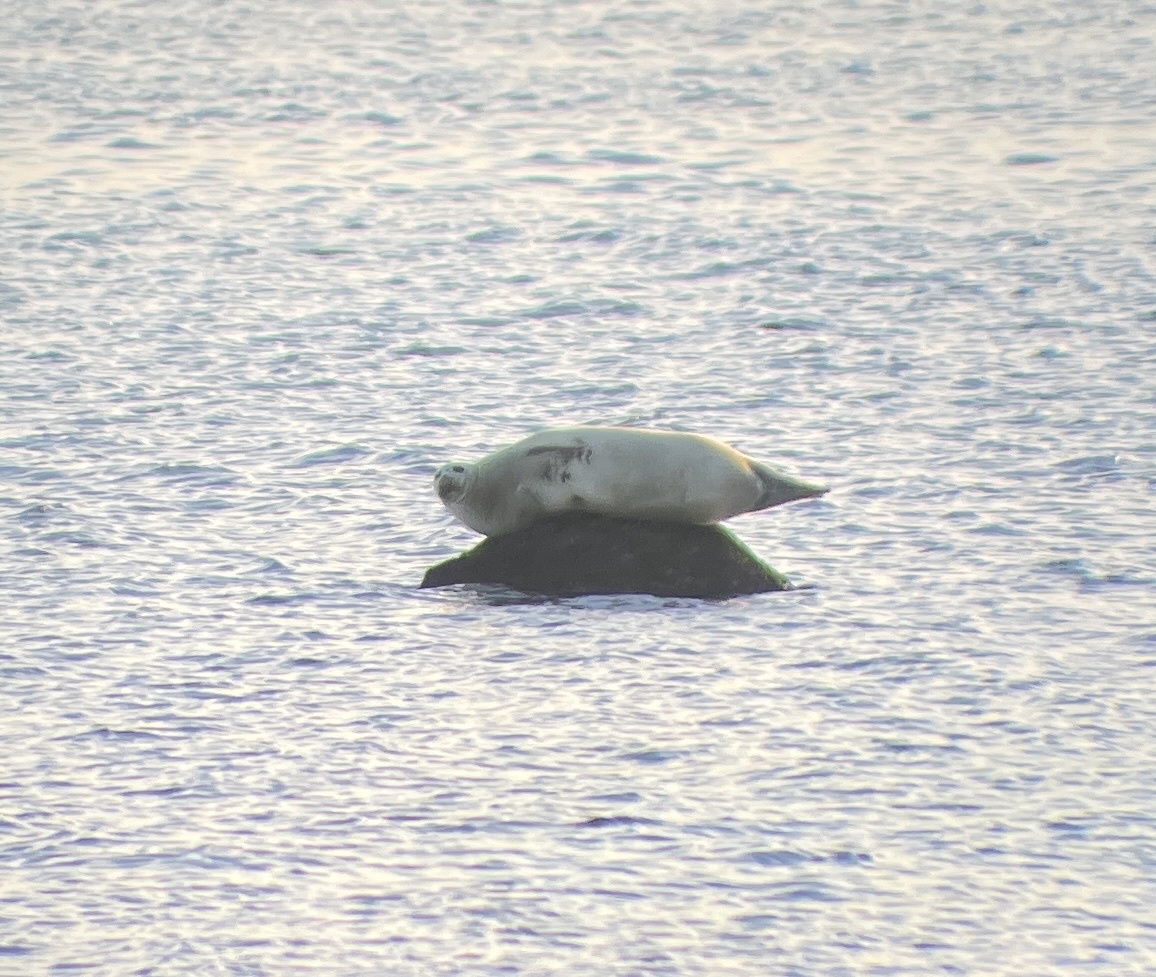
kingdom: Animalia
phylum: Chordata
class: Mammalia
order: Carnivora
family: Phocidae
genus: Phoca
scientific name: Phoca vitulina
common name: Harbor seal
